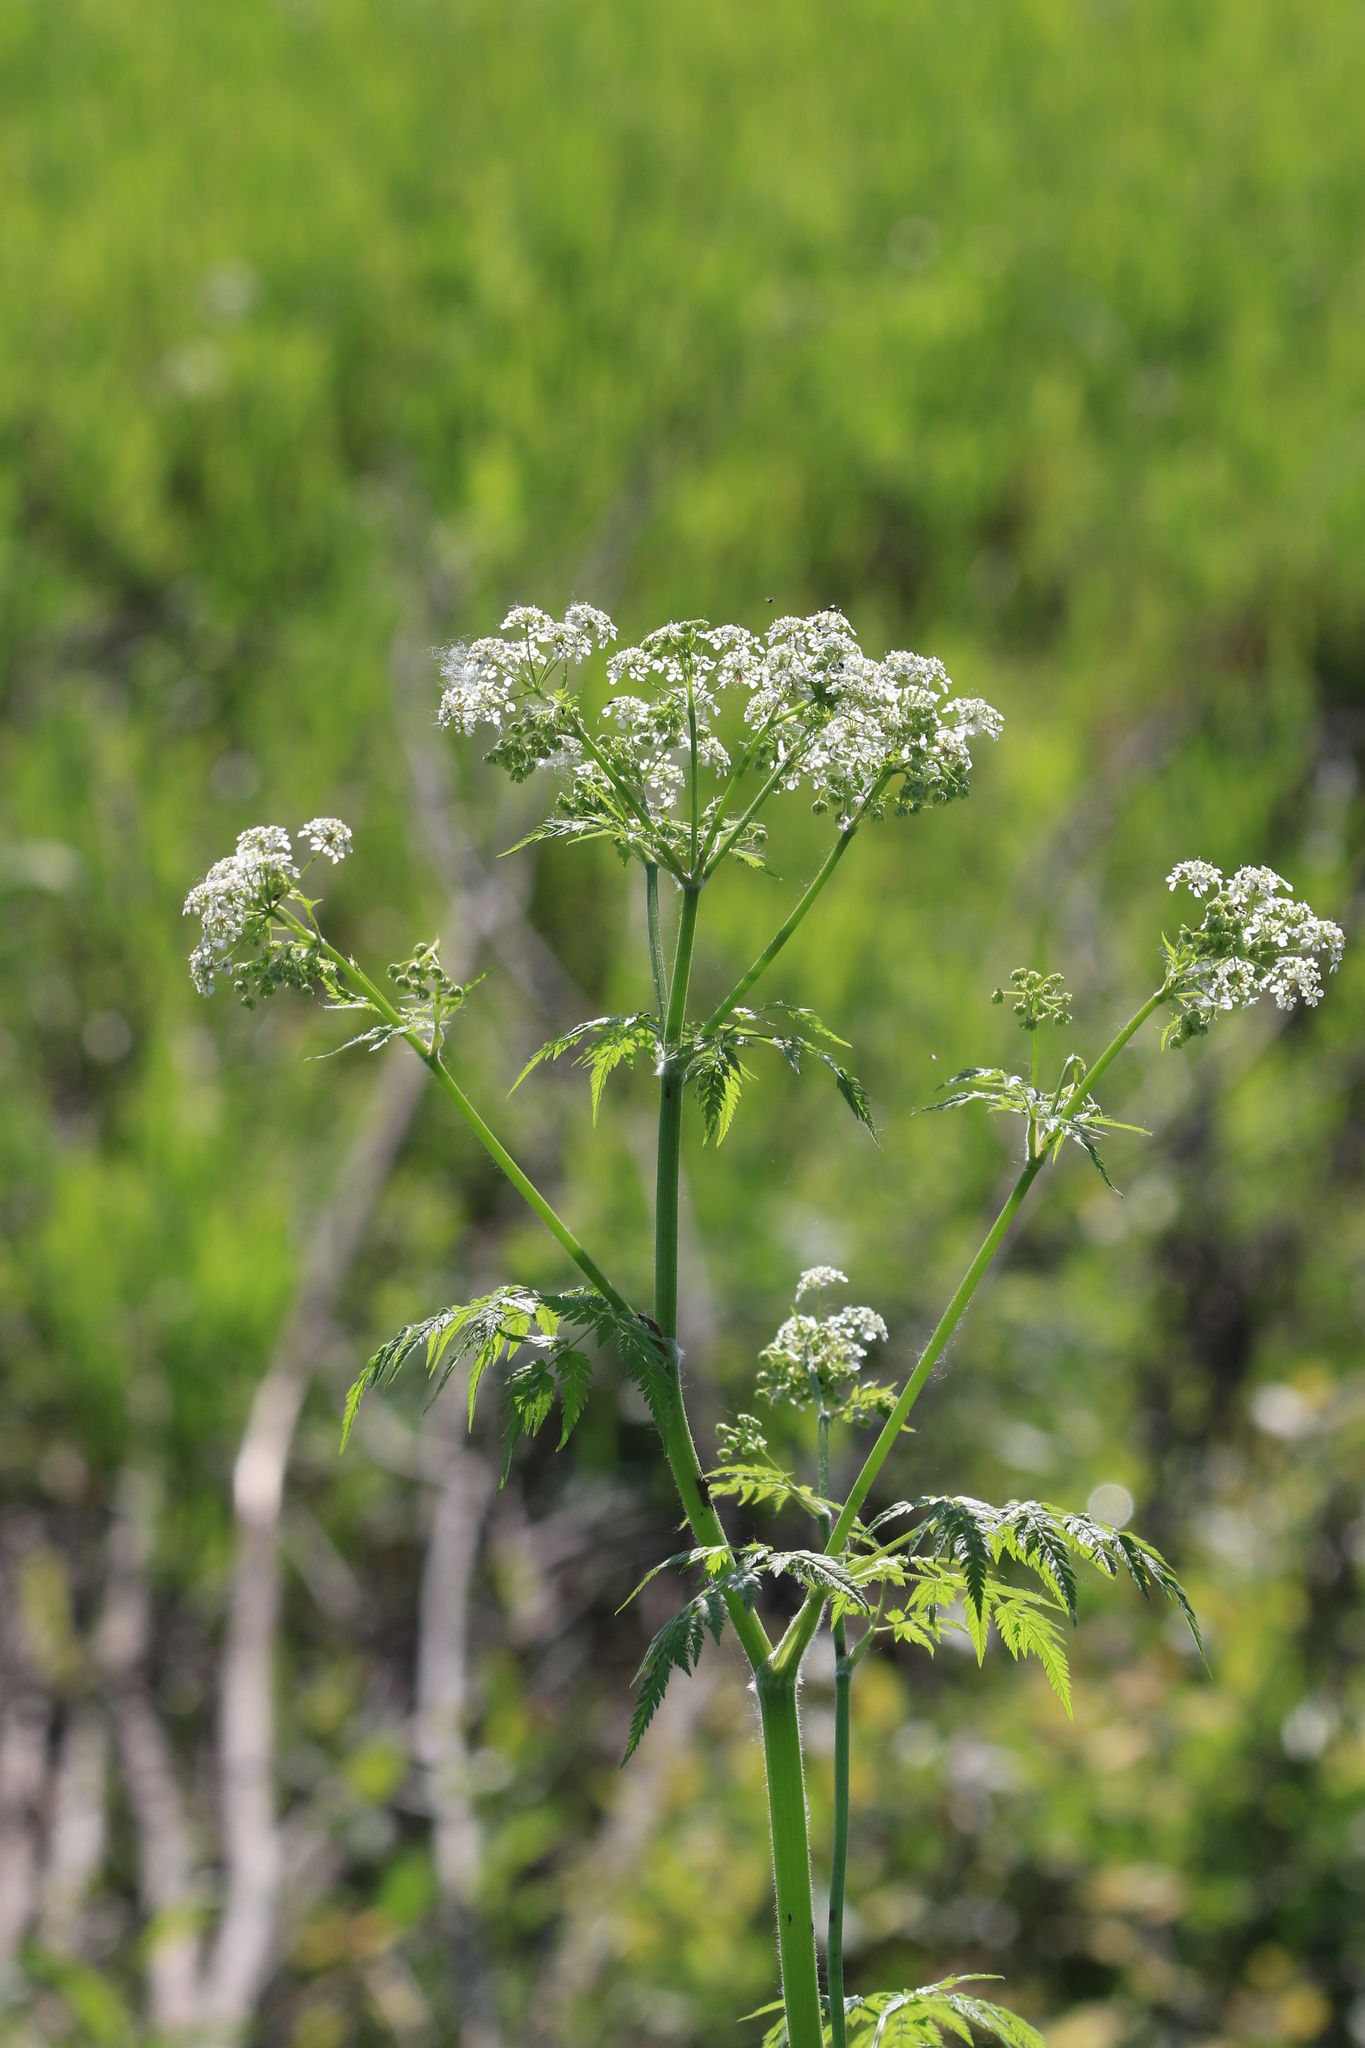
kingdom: Plantae
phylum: Tracheophyta
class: Magnoliopsida
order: Apiales
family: Apiaceae
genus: Anthriscus
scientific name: Anthriscus sylvestris
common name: Cow parsley
